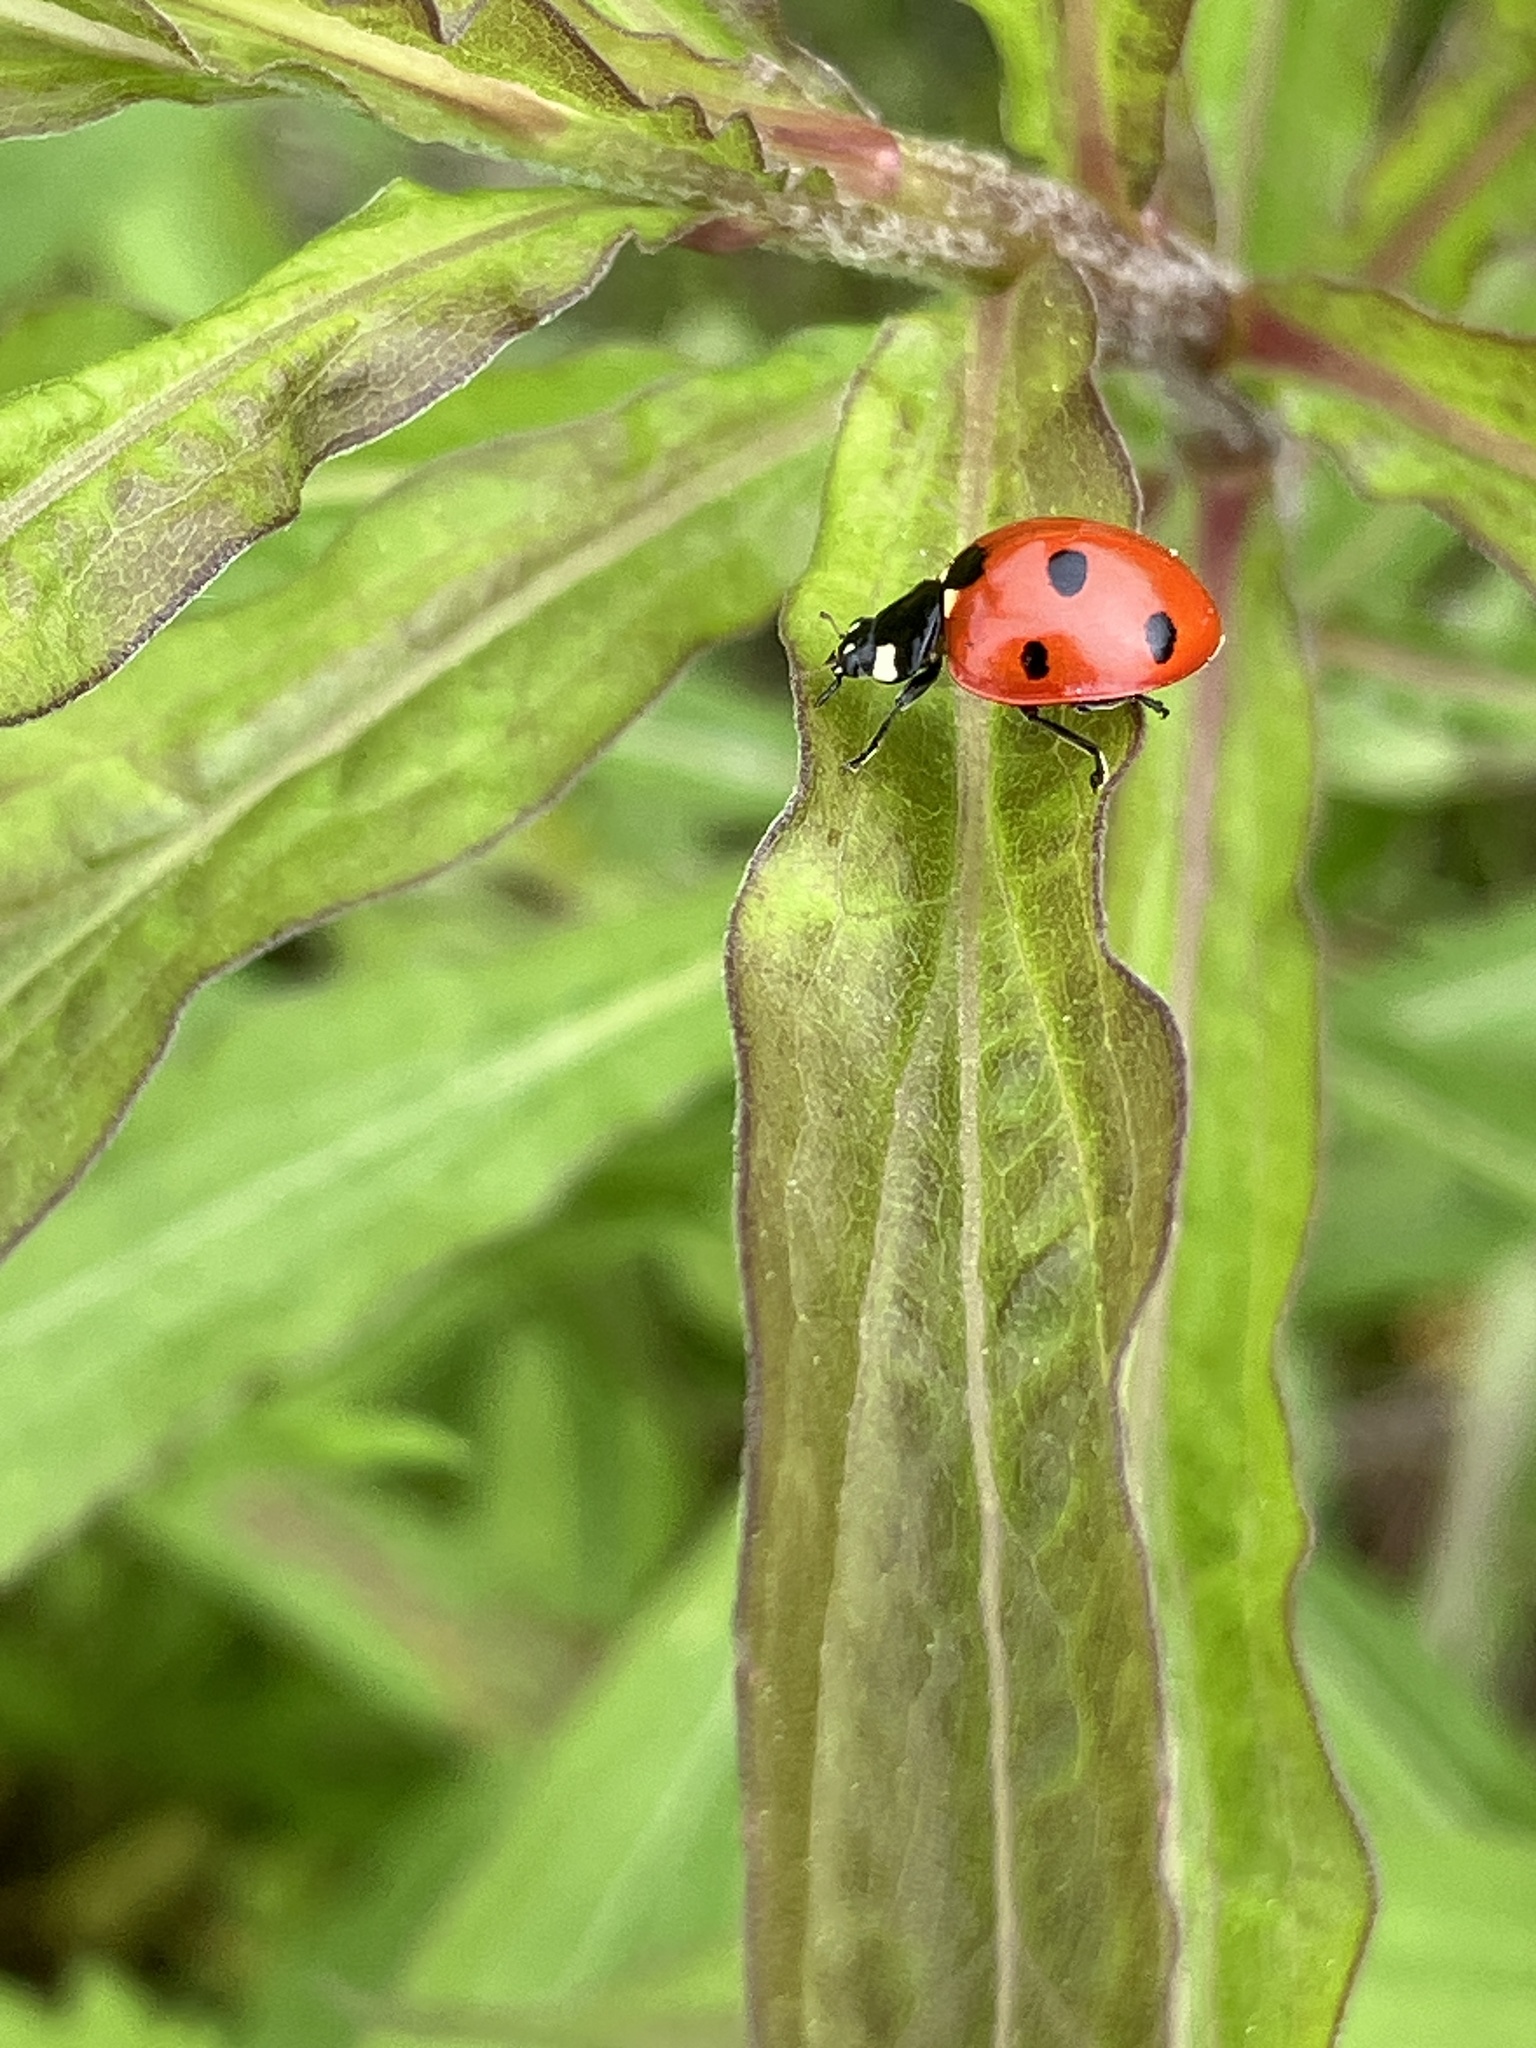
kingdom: Animalia
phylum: Arthropoda
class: Insecta
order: Coleoptera
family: Coccinellidae
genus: Coccinella
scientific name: Coccinella septempunctata
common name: Sevenspotted lady beetle
